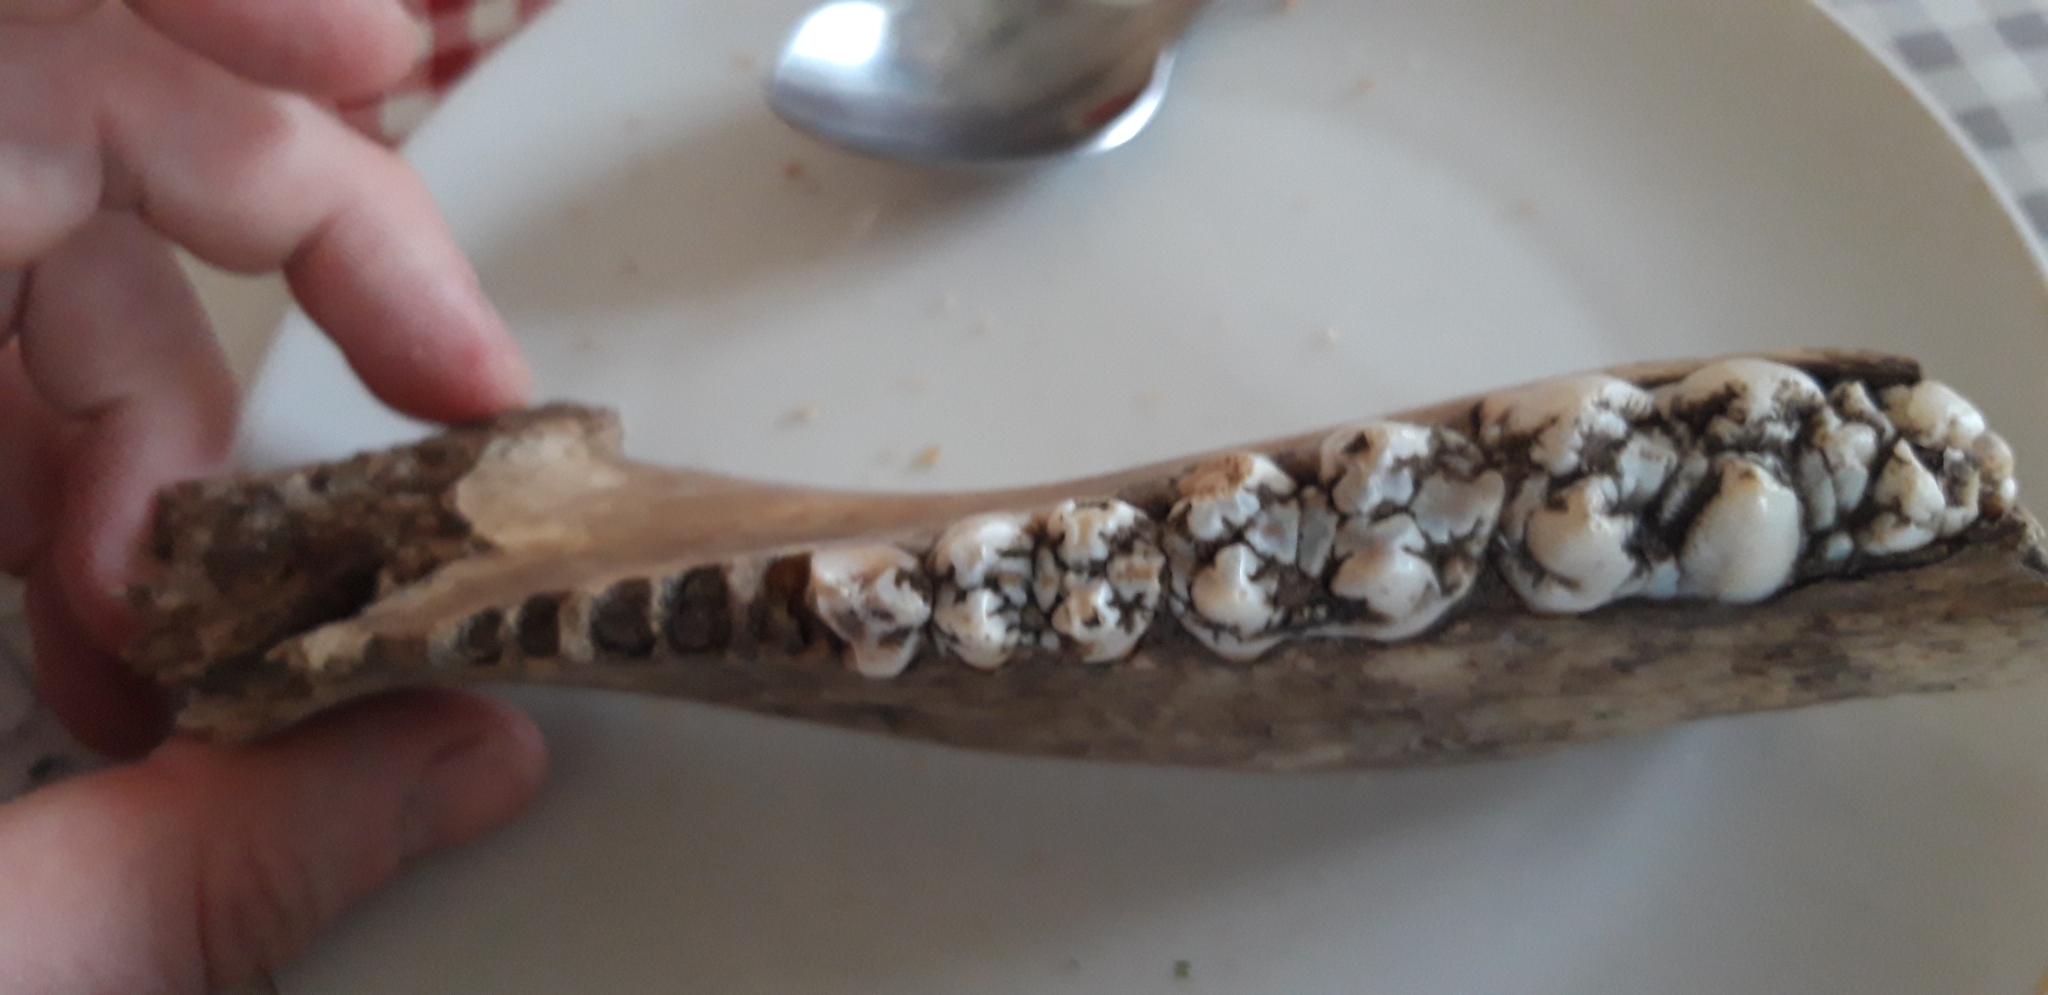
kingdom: Animalia
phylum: Chordata
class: Mammalia
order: Artiodactyla
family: Suidae
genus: Sus
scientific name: Sus scrofa
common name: Wild boar
